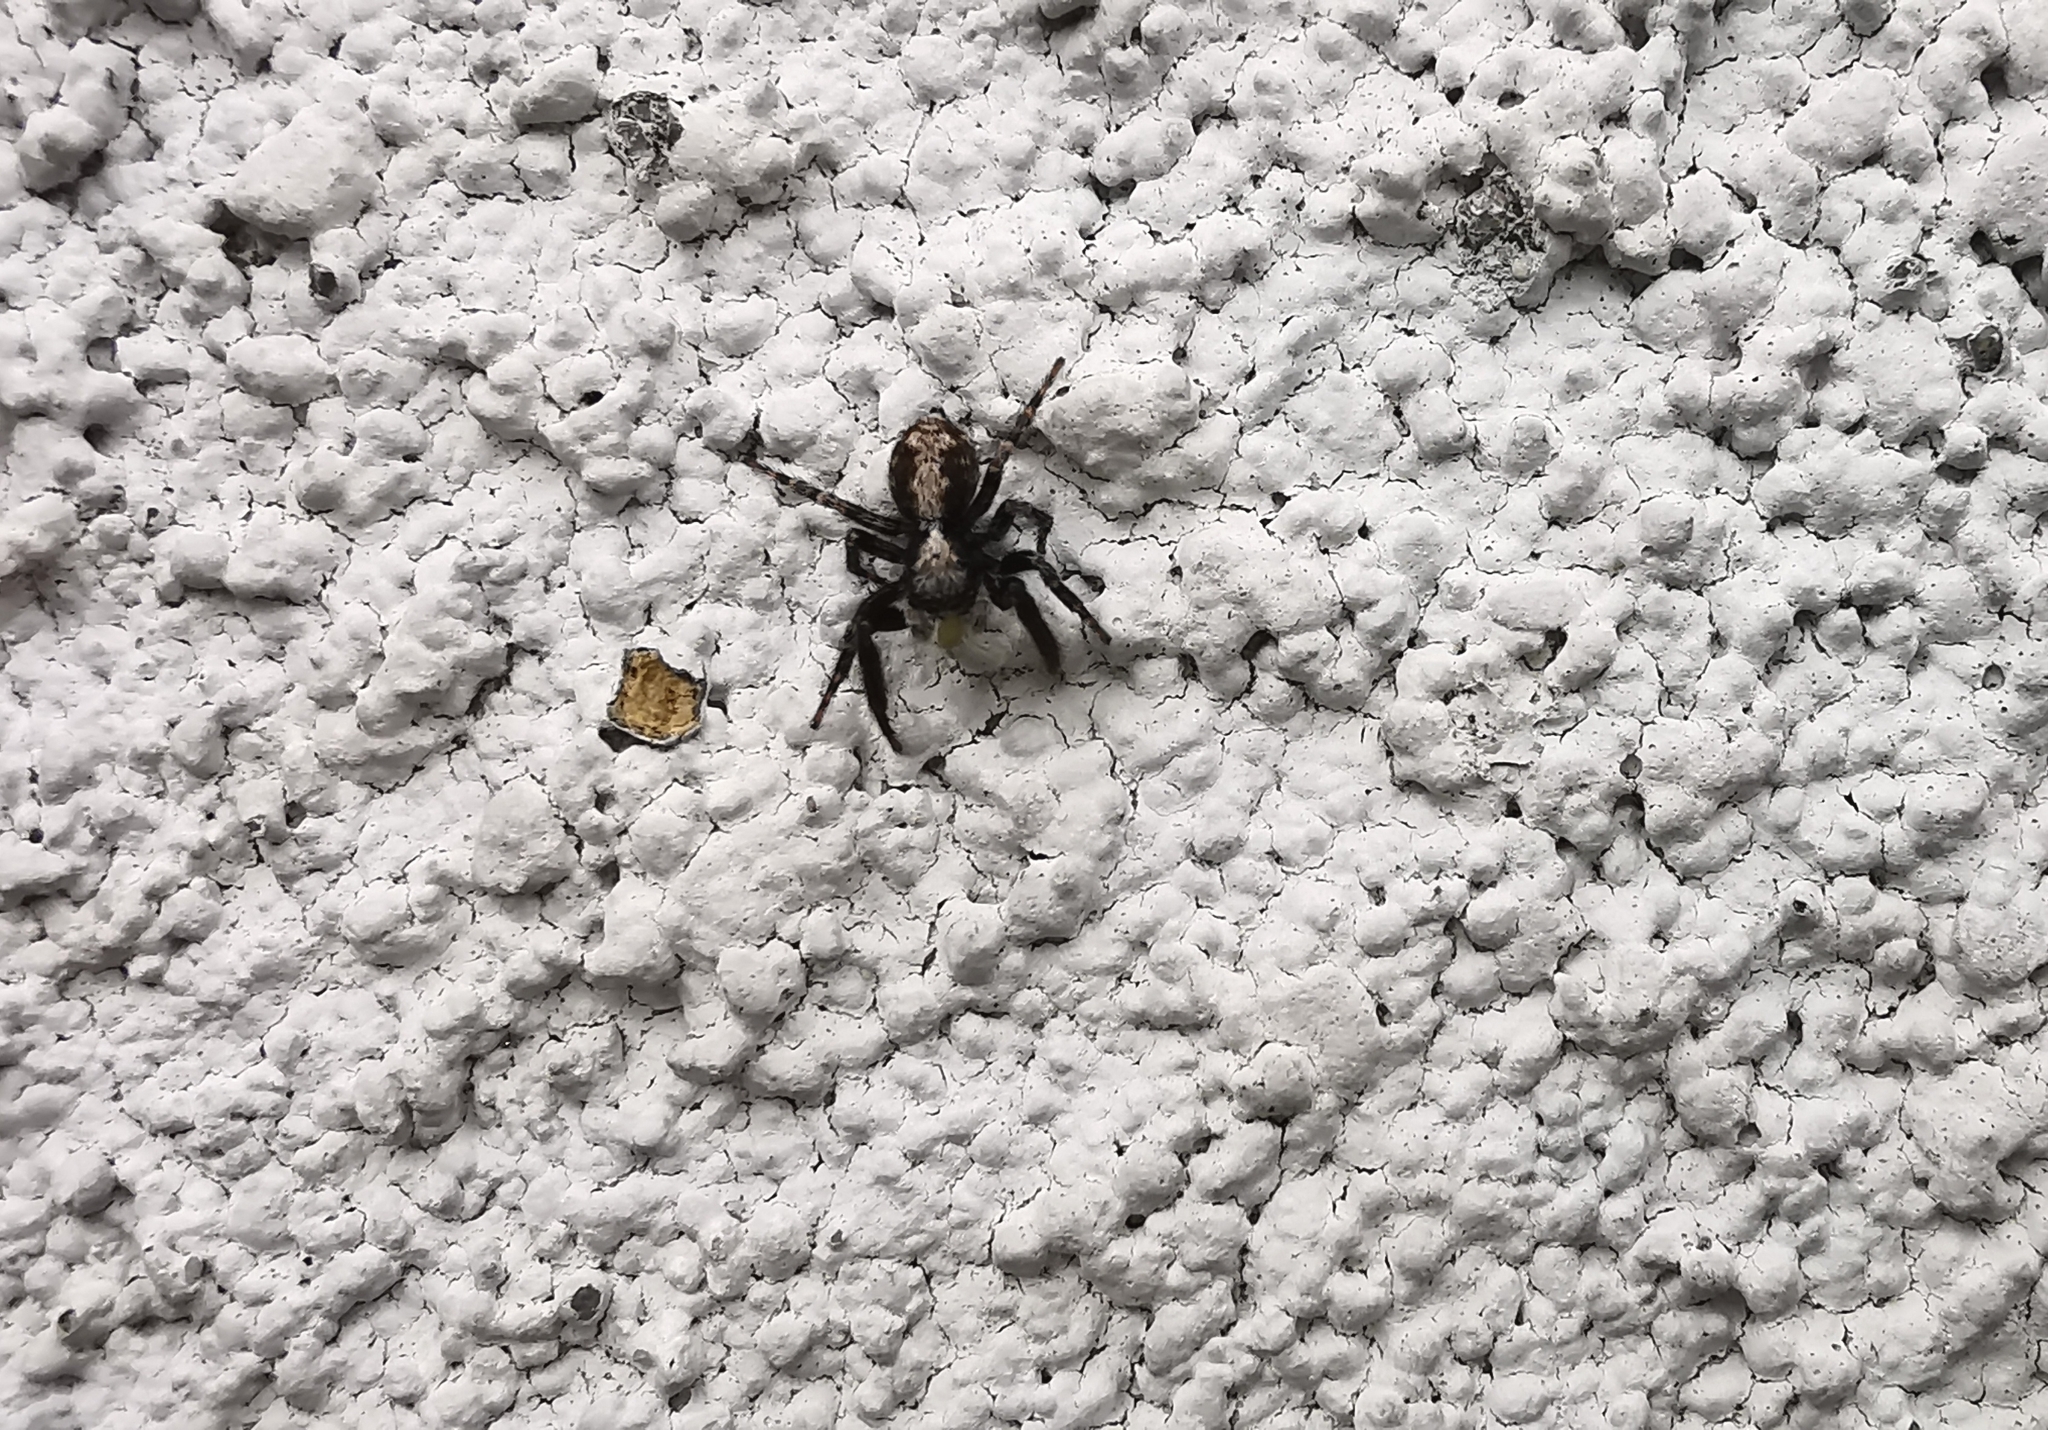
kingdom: Animalia
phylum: Arthropoda
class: Arachnida
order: Araneae
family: Salticidae
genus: Pseudeuophrys
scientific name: Pseudeuophrys lanigera
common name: Jumping spider
